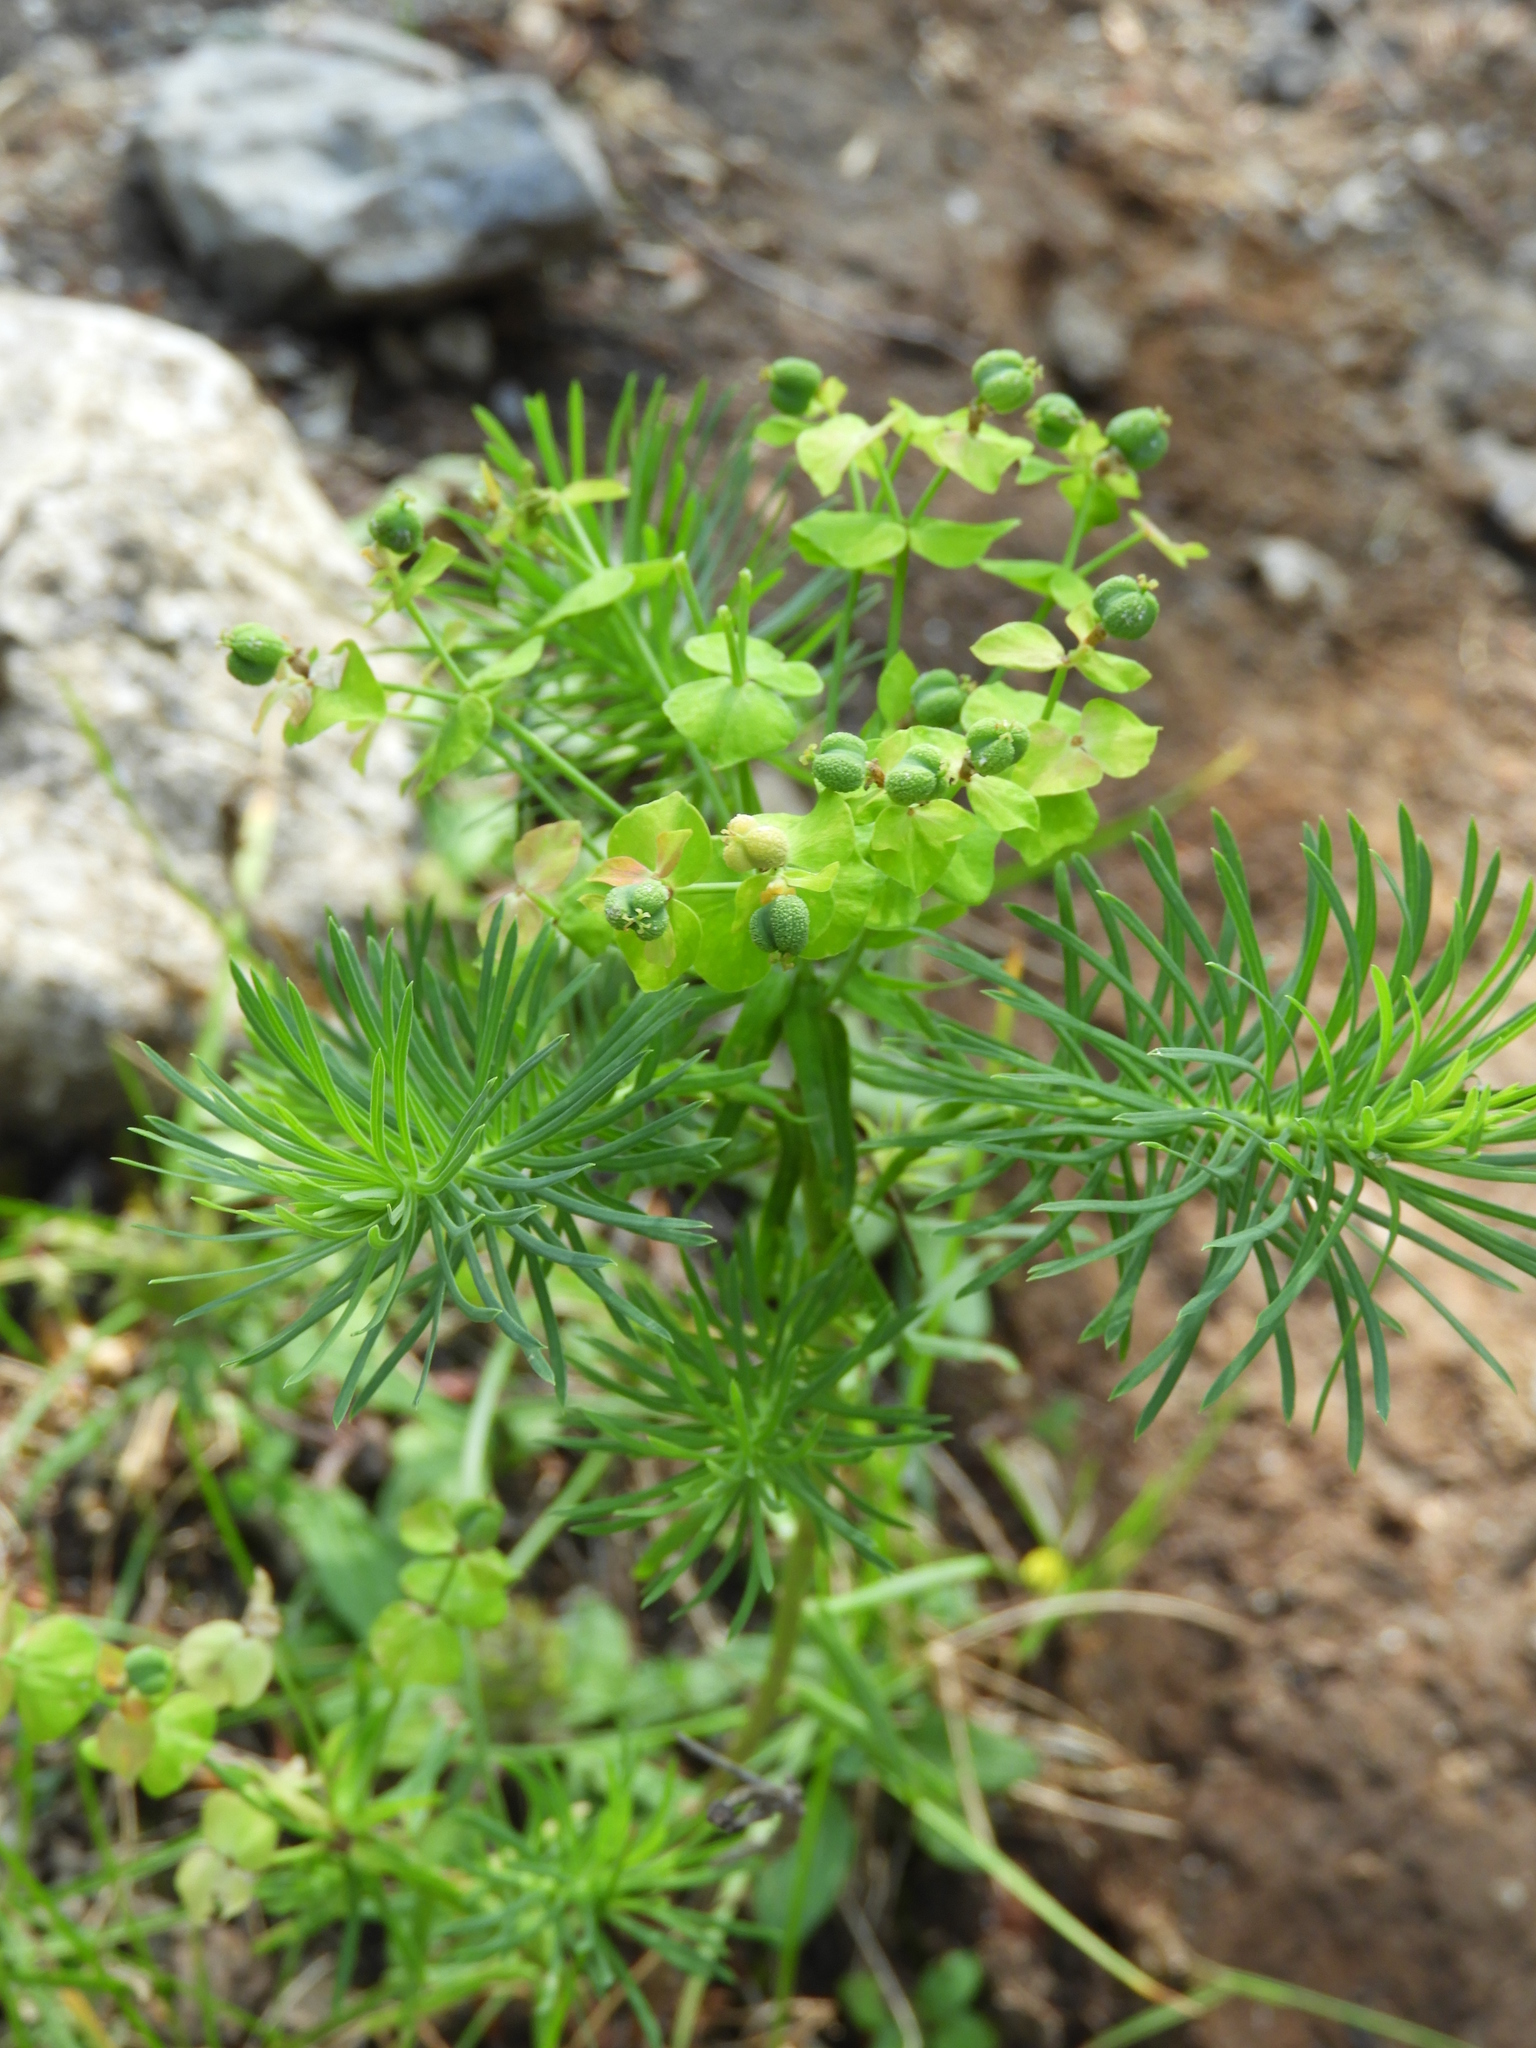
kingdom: Plantae
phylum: Tracheophyta
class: Magnoliopsida
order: Malpighiales
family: Euphorbiaceae
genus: Euphorbia
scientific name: Euphorbia cyparissias
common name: Cypress spurge
